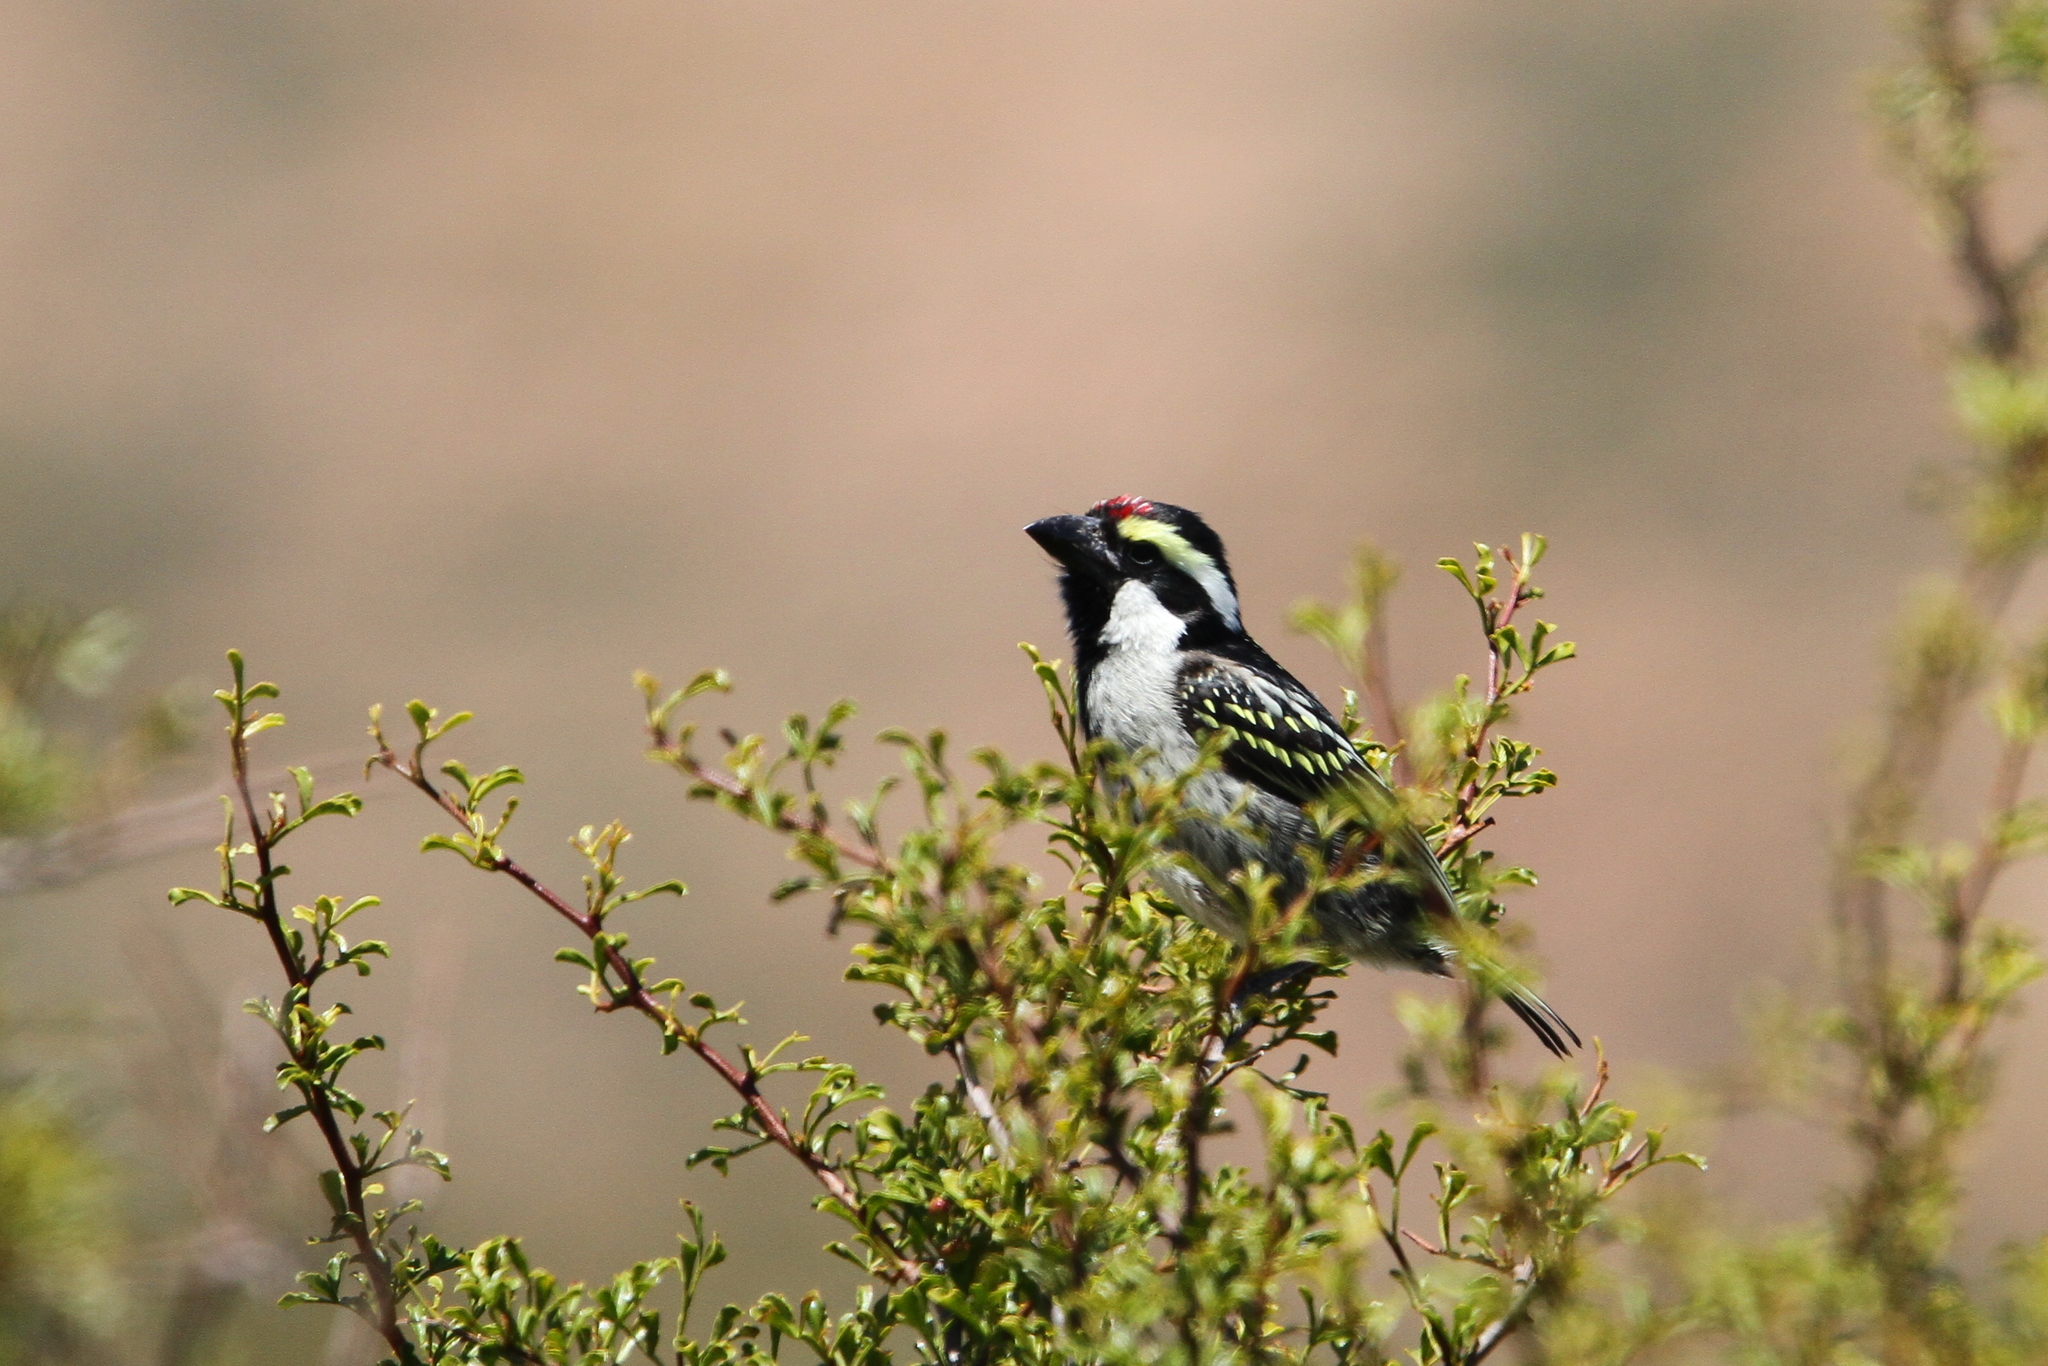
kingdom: Animalia
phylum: Chordata
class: Aves
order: Piciformes
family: Lybiidae
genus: Tricholaema
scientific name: Tricholaema leucomelas
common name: Acacia pied barbet
